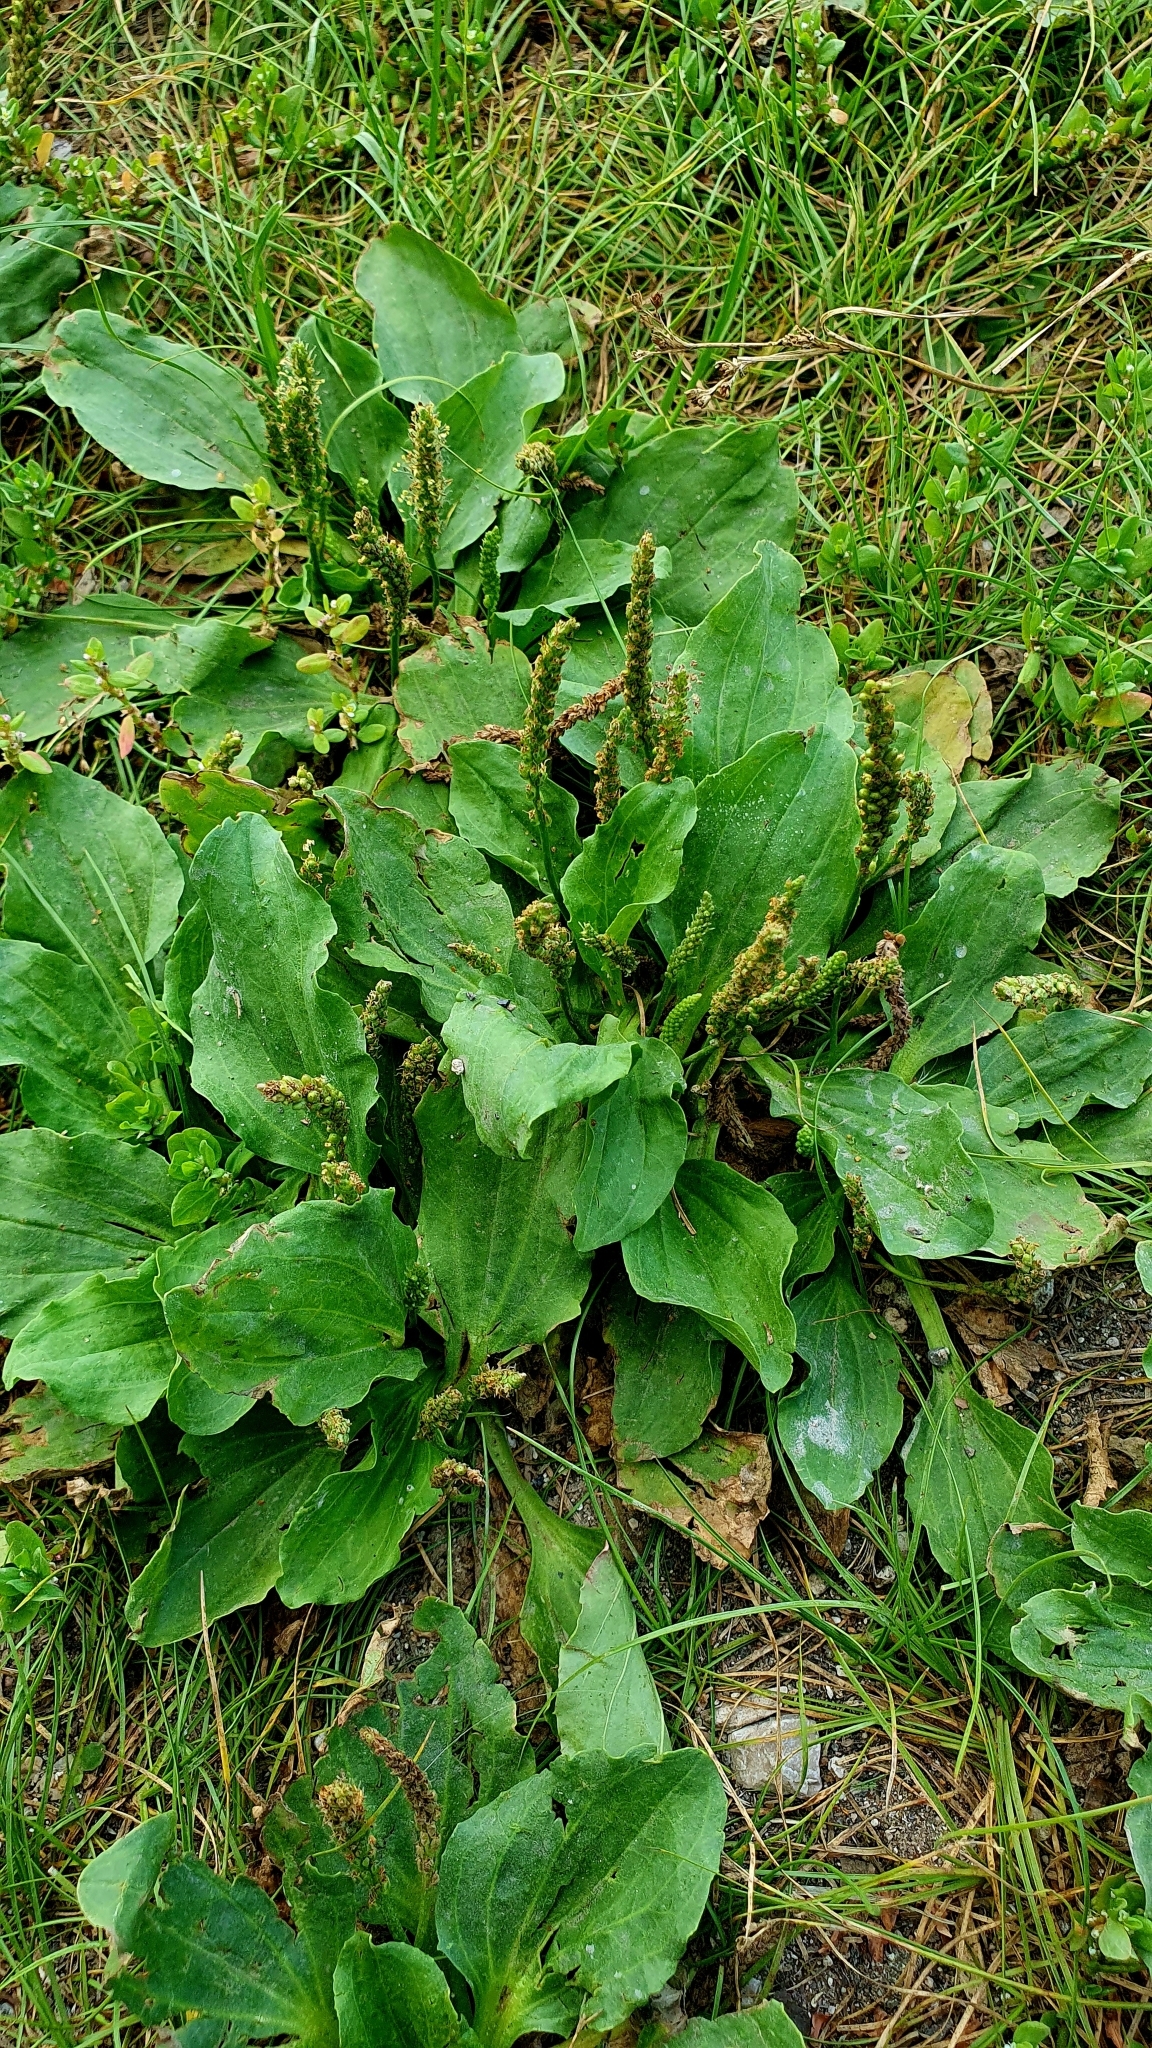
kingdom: Plantae
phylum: Tracheophyta
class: Magnoliopsida
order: Lamiales
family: Plantaginaceae
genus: Plantago
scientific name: Plantago major
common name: Common plantain
